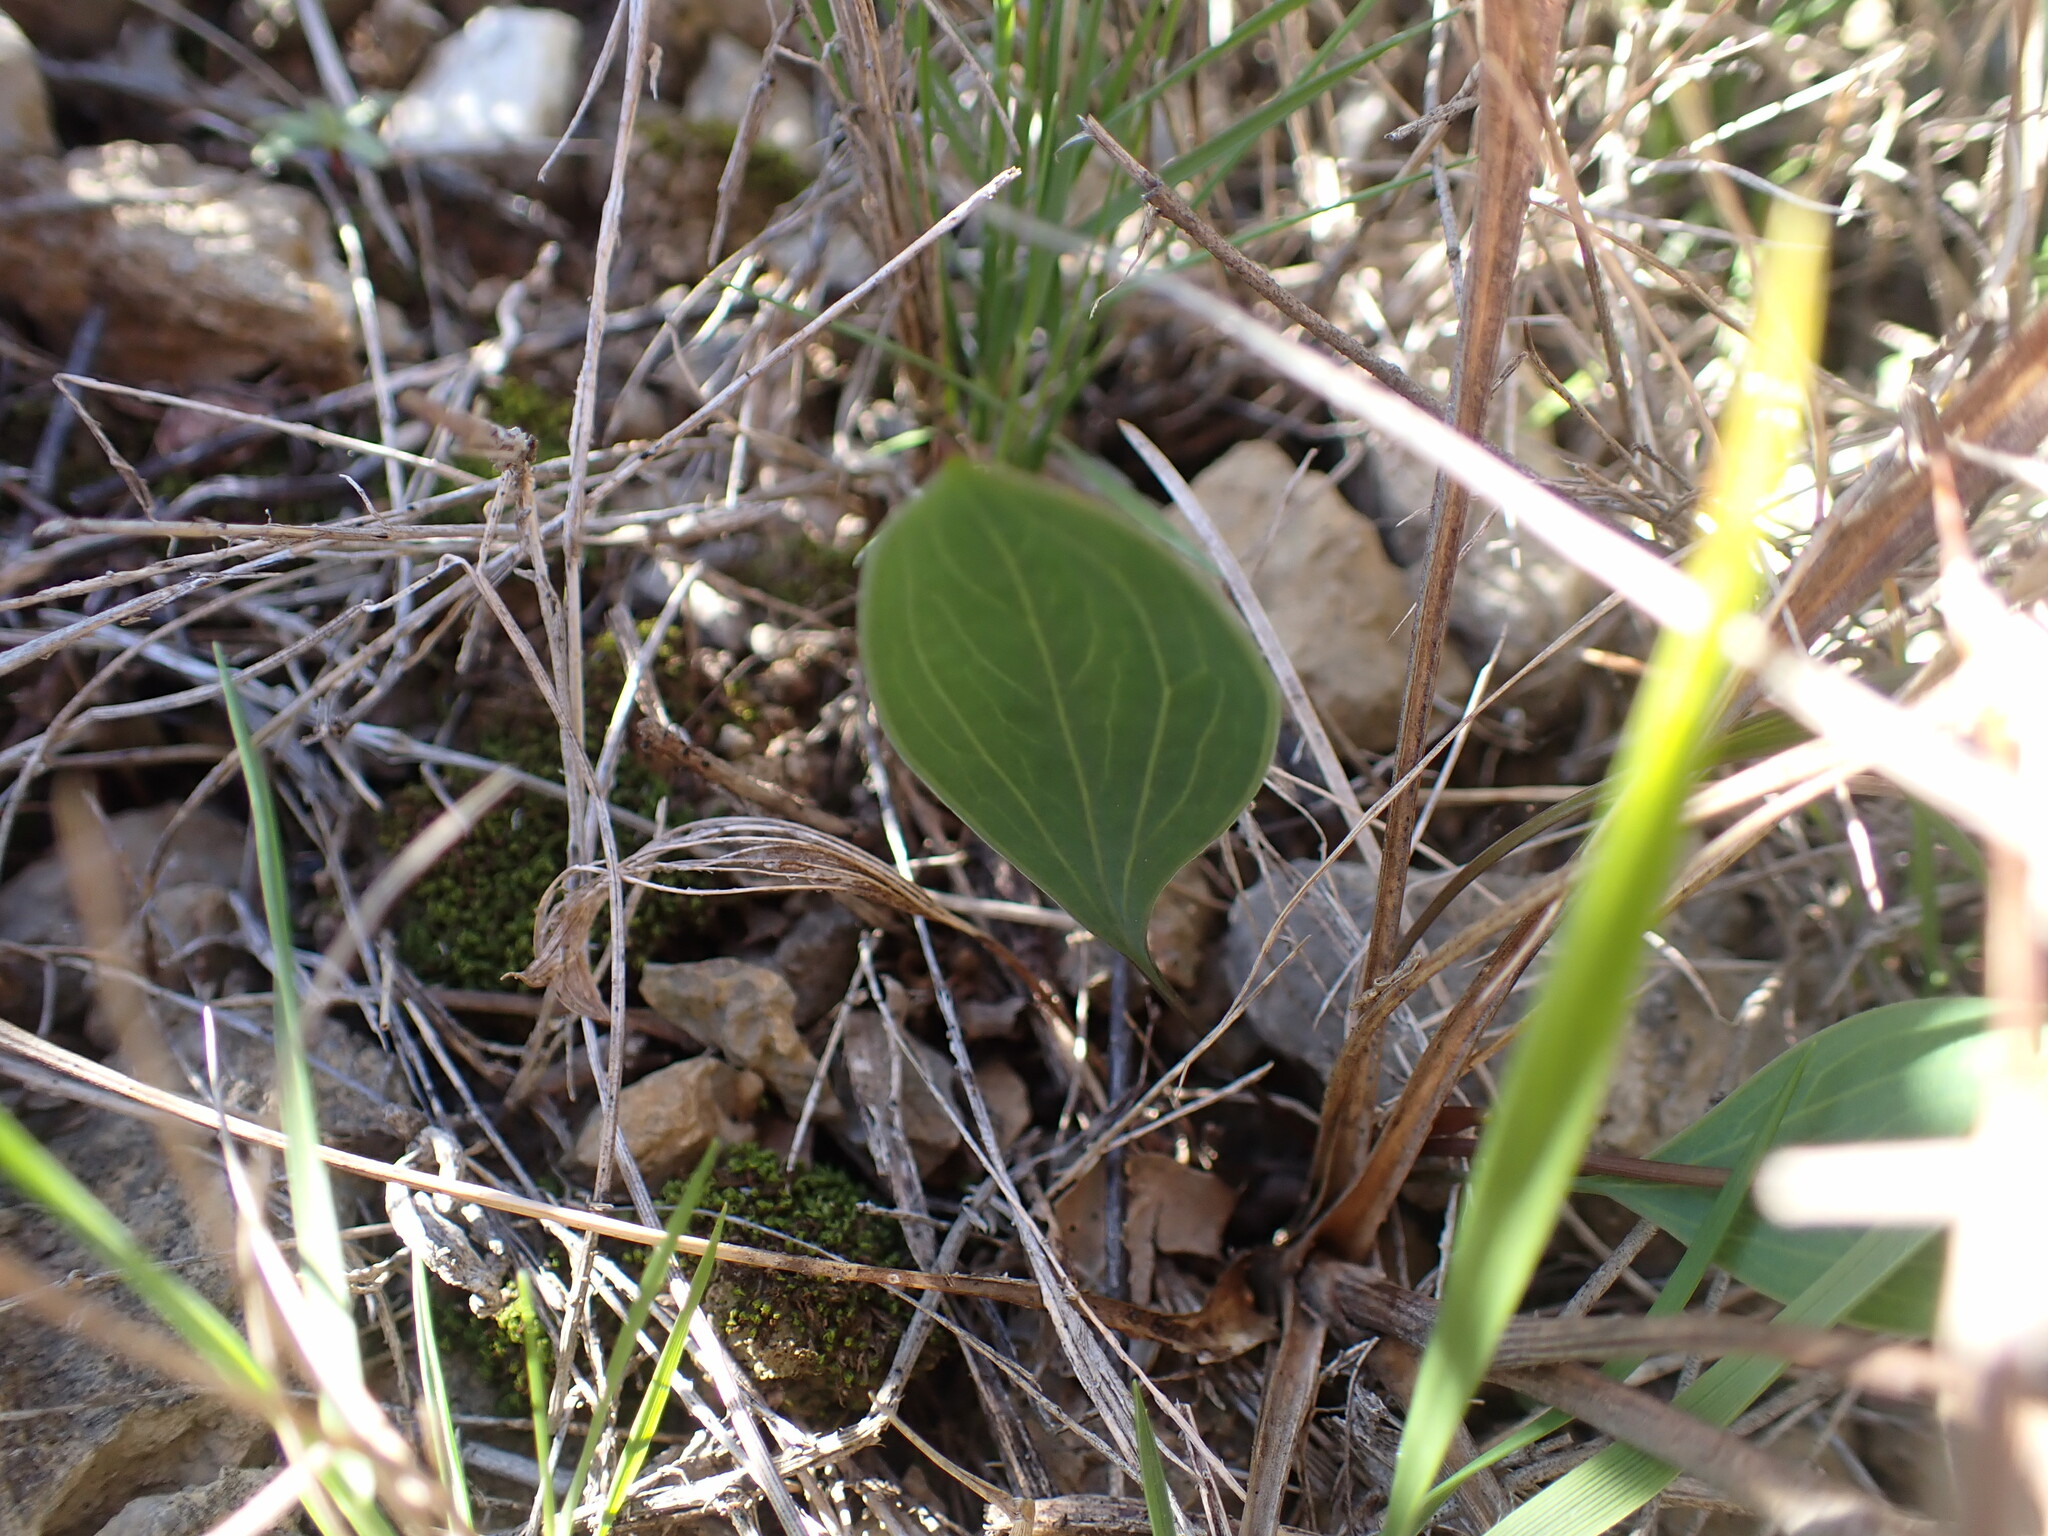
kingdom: Plantae
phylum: Tracheophyta
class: Magnoliopsida
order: Apiales
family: Apiaceae
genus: Bupleurum
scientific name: Bupleurum rigidum
